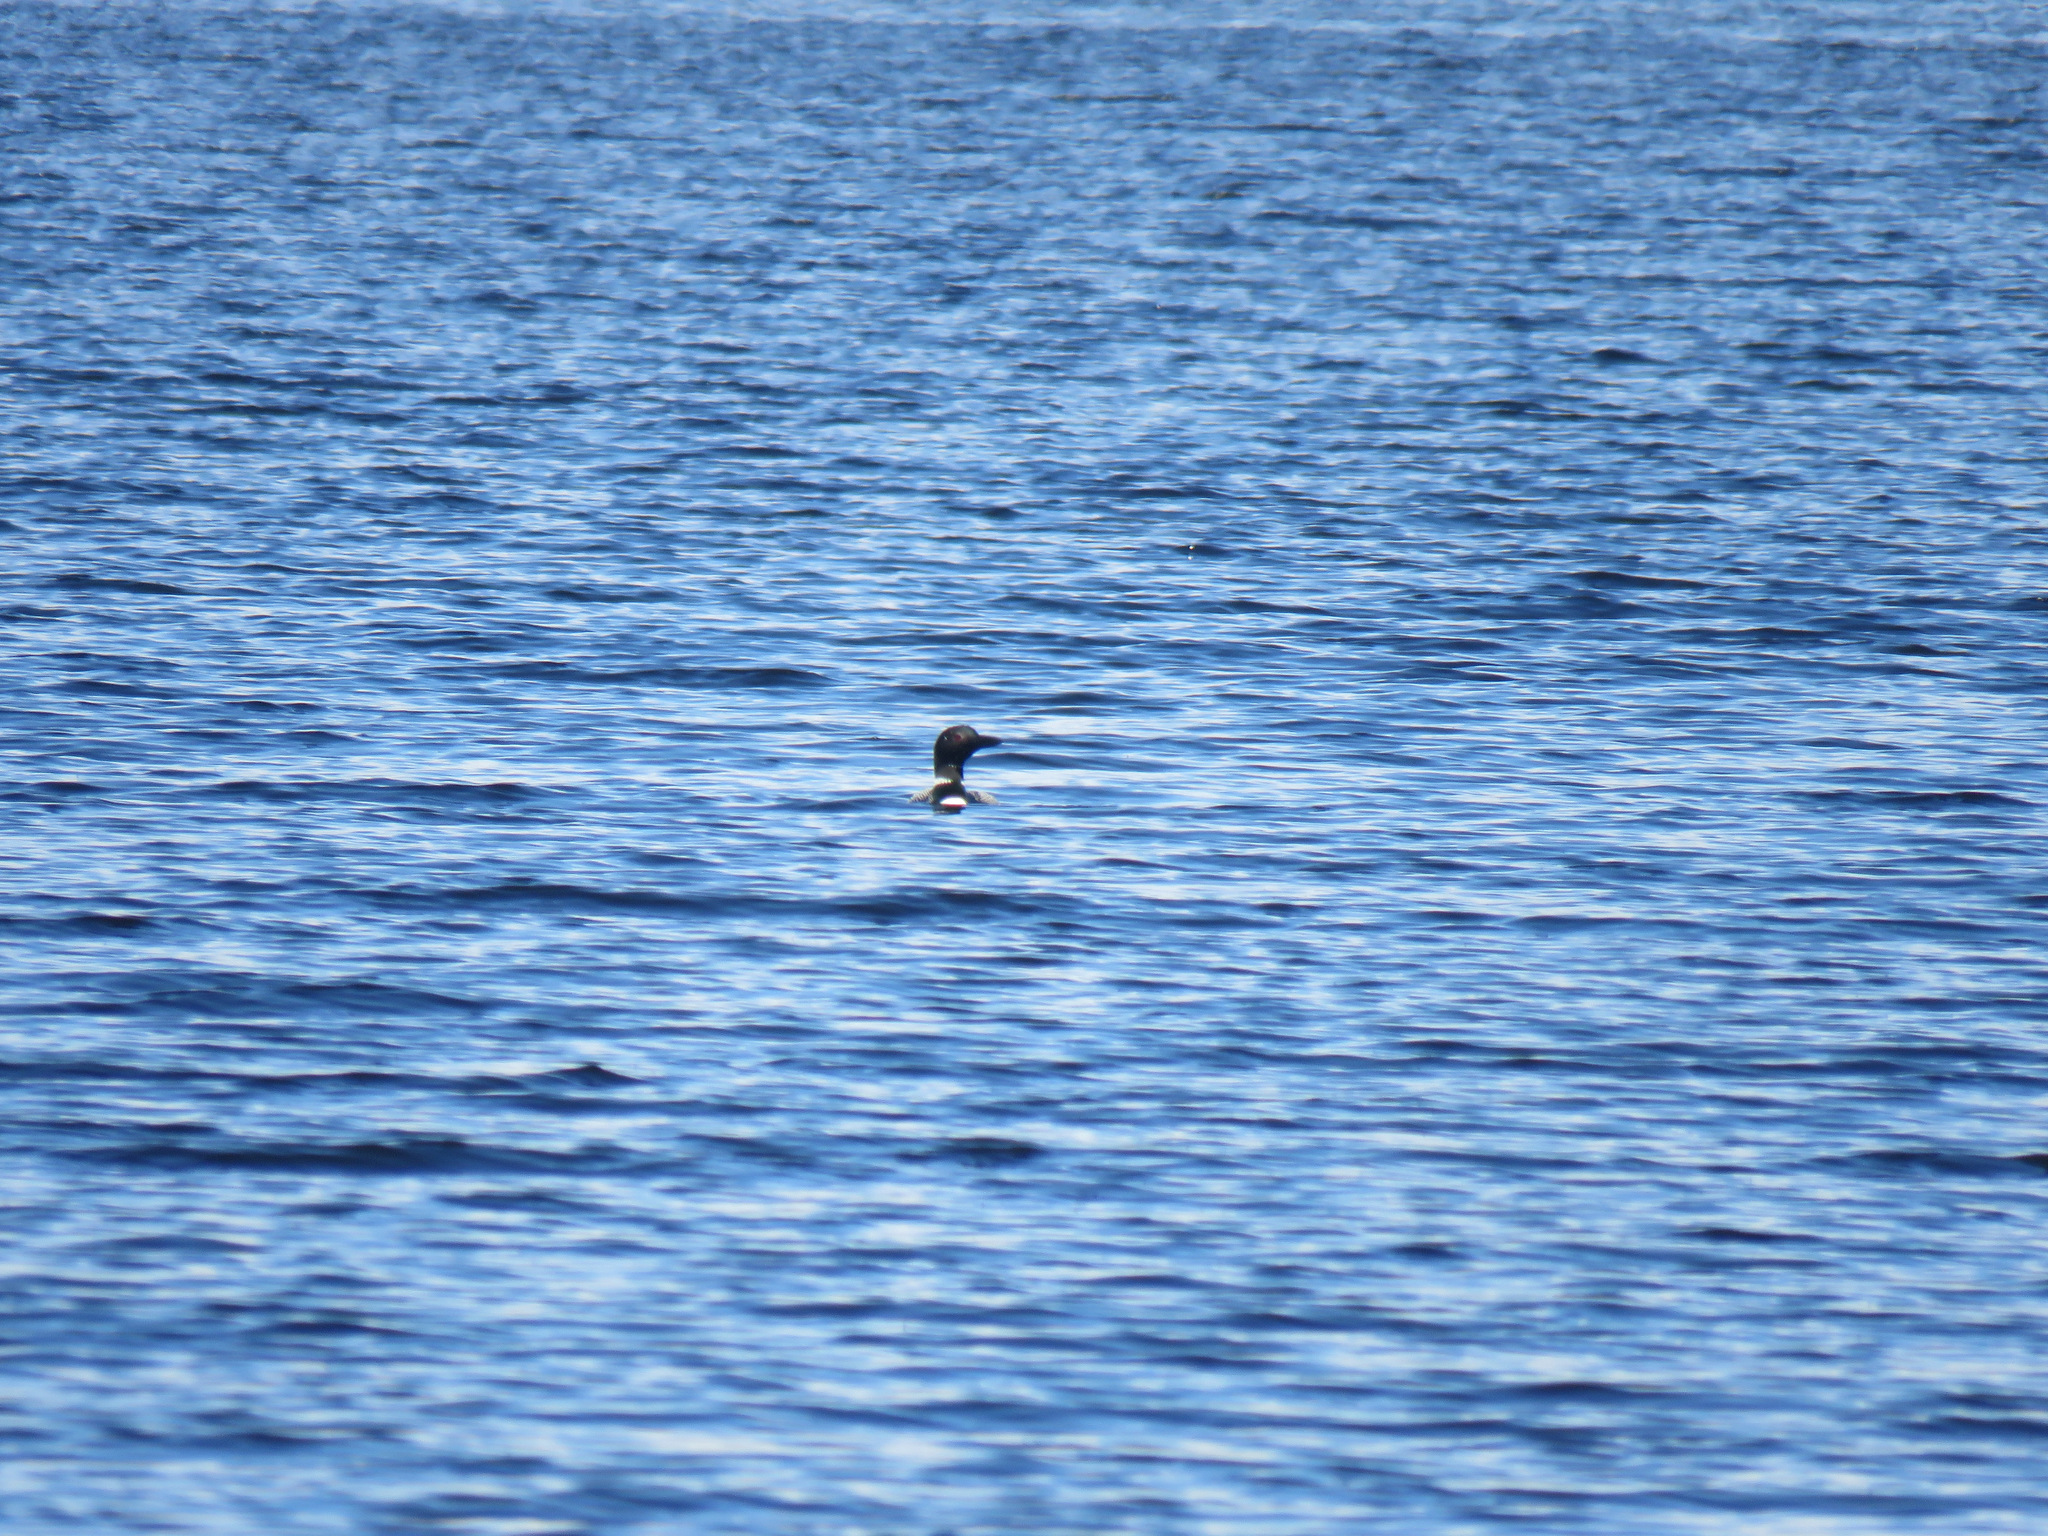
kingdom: Animalia
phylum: Chordata
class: Aves
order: Gaviiformes
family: Gaviidae
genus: Gavia
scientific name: Gavia immer
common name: Common loon
